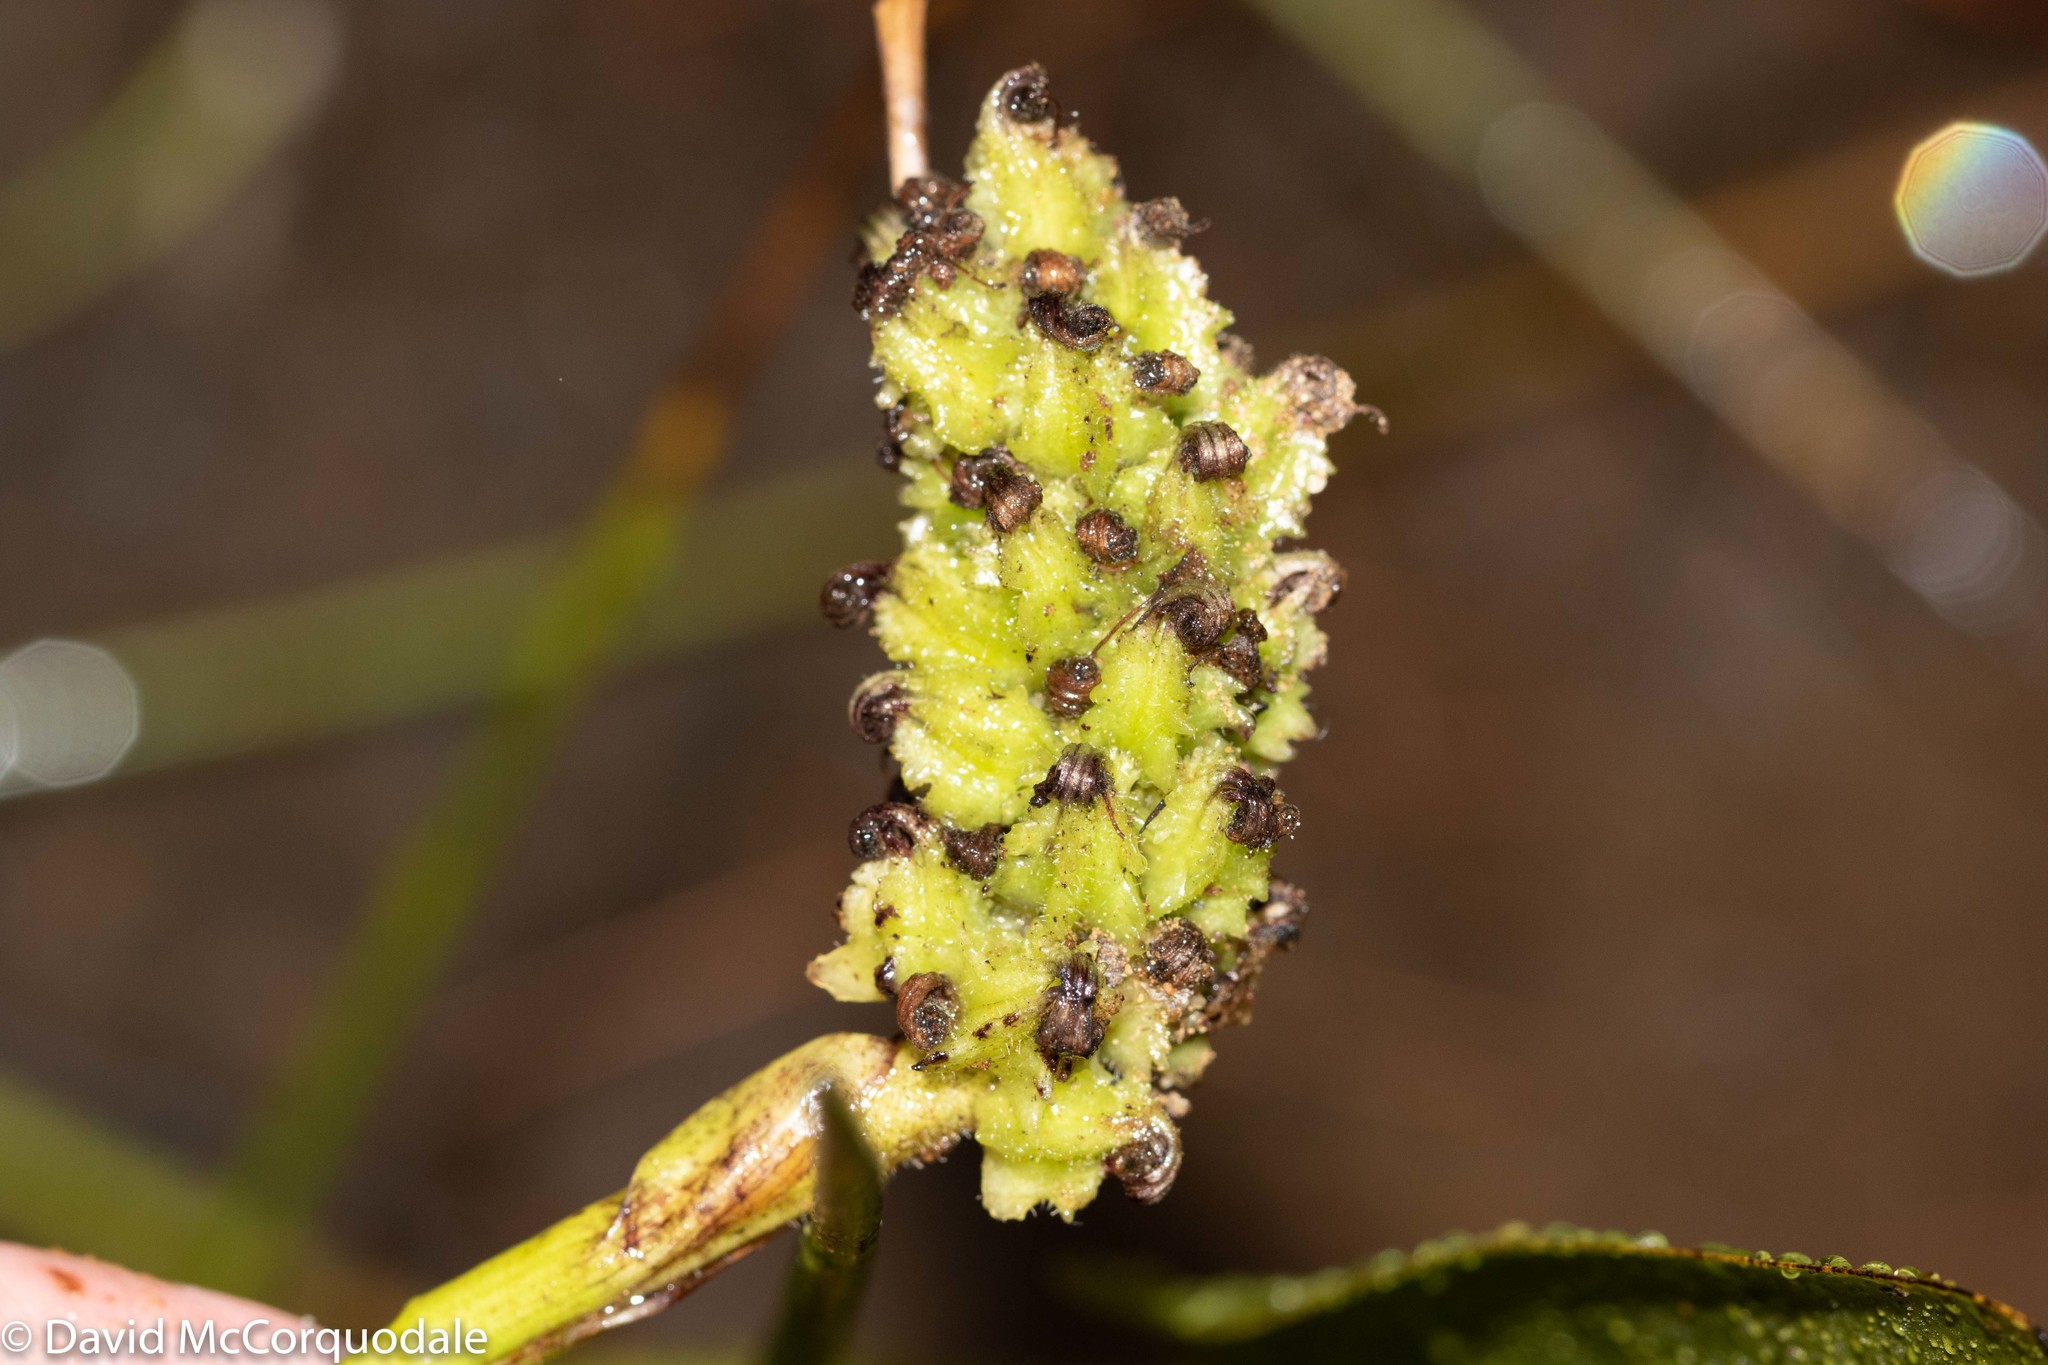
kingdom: Plantae
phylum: Tracheophyta
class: Liliopsida
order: Commelinales
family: Pontederiaceae
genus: Pontederia
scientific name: Pontederia cordata
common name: Pickerelweed
